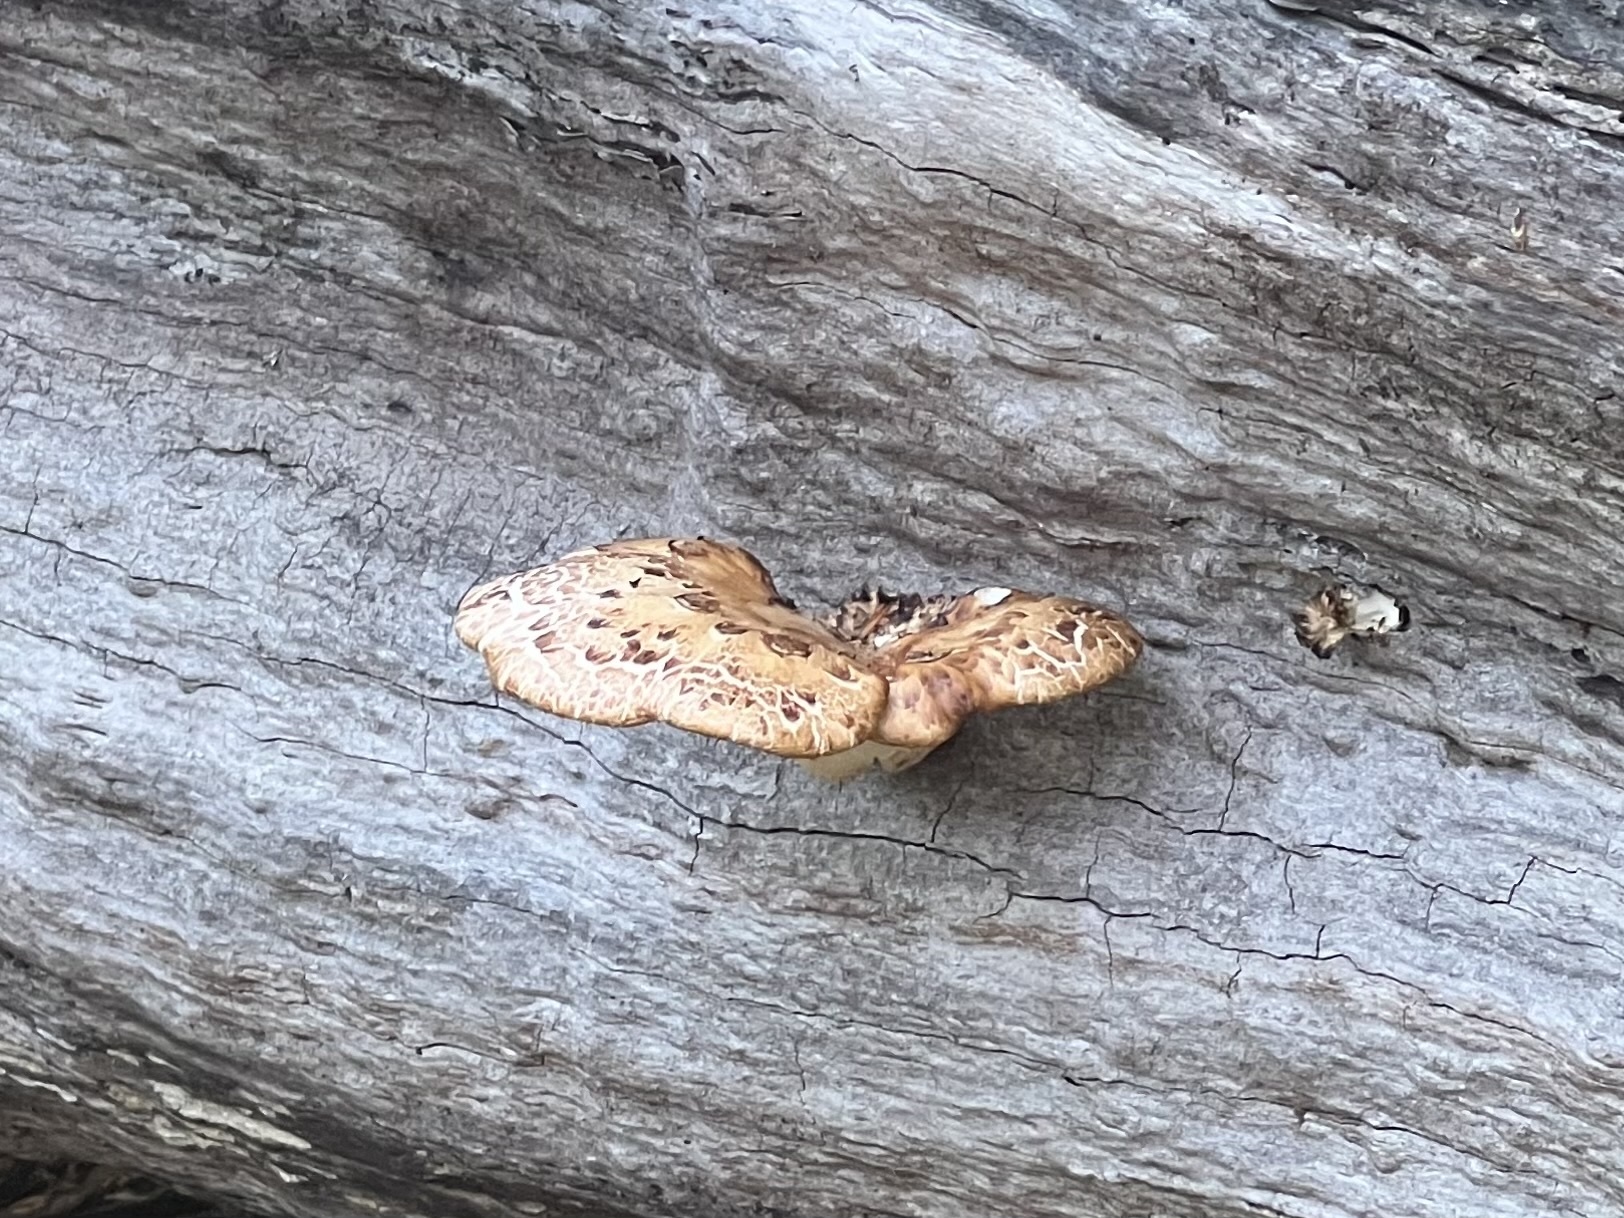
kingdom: Fungi
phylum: Basidiomycota
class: Agaricomycetes
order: Polyporales
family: Polyporaceae
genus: Cerioporus
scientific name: Cerioporus squamosus
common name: Dryad's saddle
